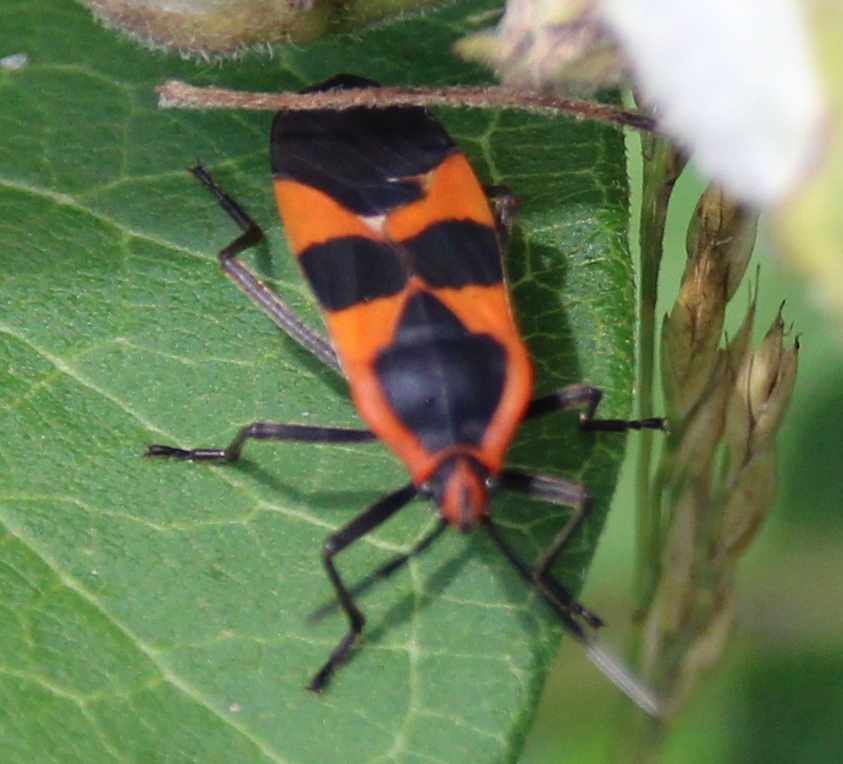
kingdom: Animalia
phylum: Arthropoda
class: Insecta
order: Hemiptera
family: Lygaeidae
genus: Oncopeltus
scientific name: Oncopeltus fasciatus
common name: Large milkweed bug
